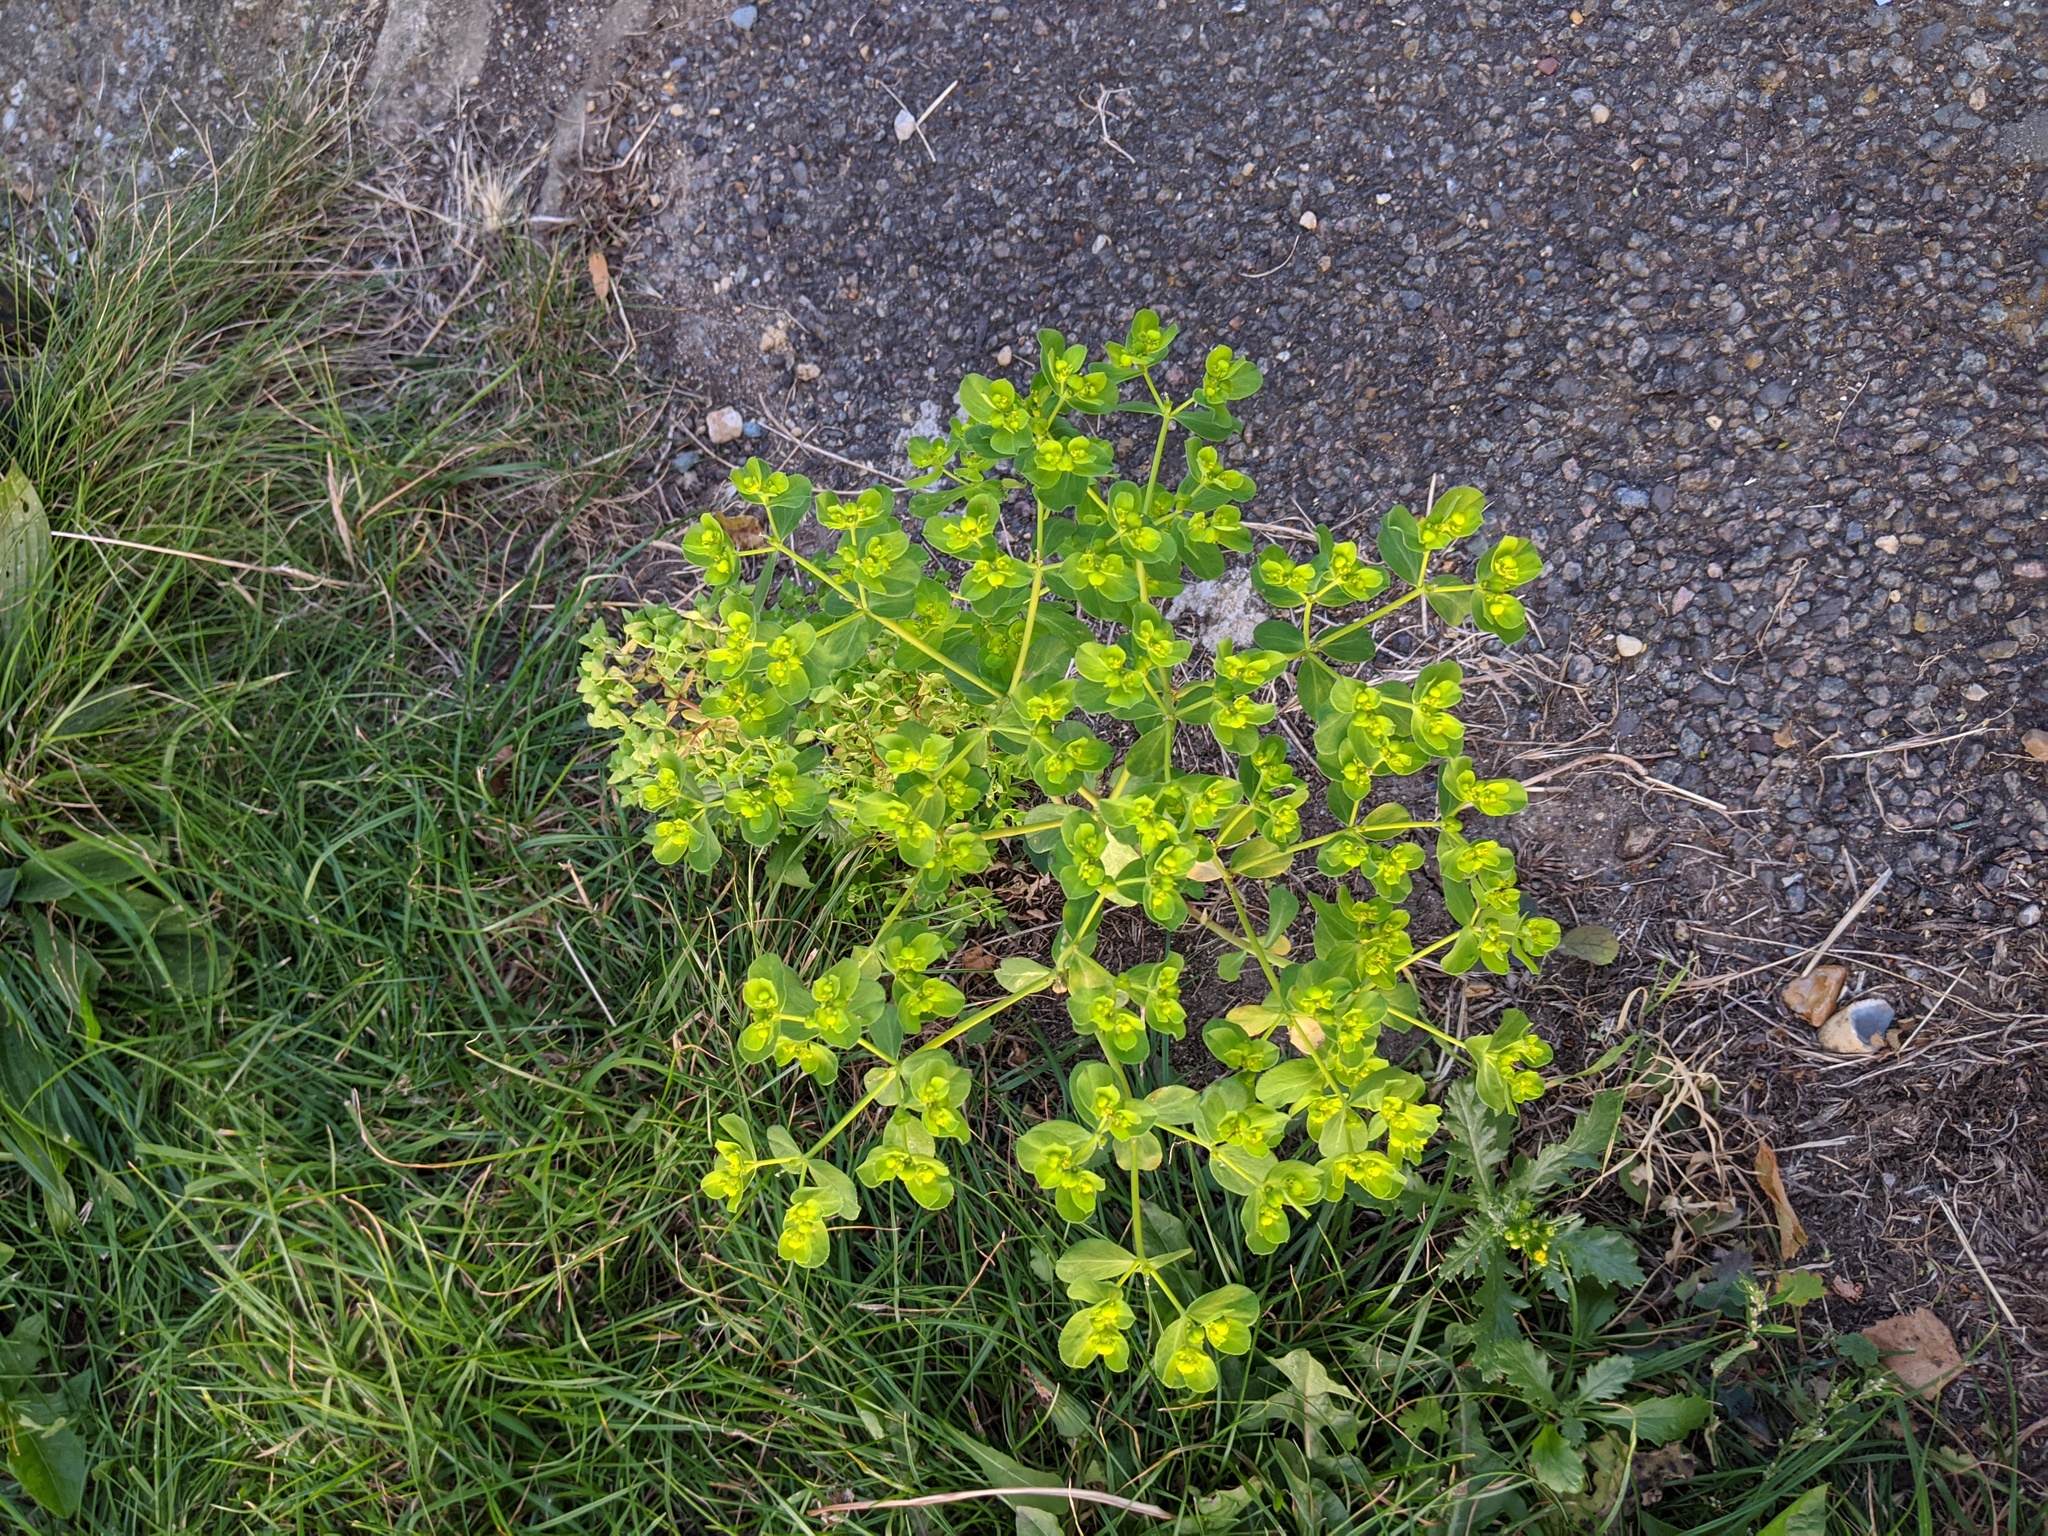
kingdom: Plantae
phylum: Tracheophyta
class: Magnoliopsida
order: Malpighiales
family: Euphorbiaceae
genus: Euphorbia
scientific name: Euphorbia helioscopia
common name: Sun spurge
